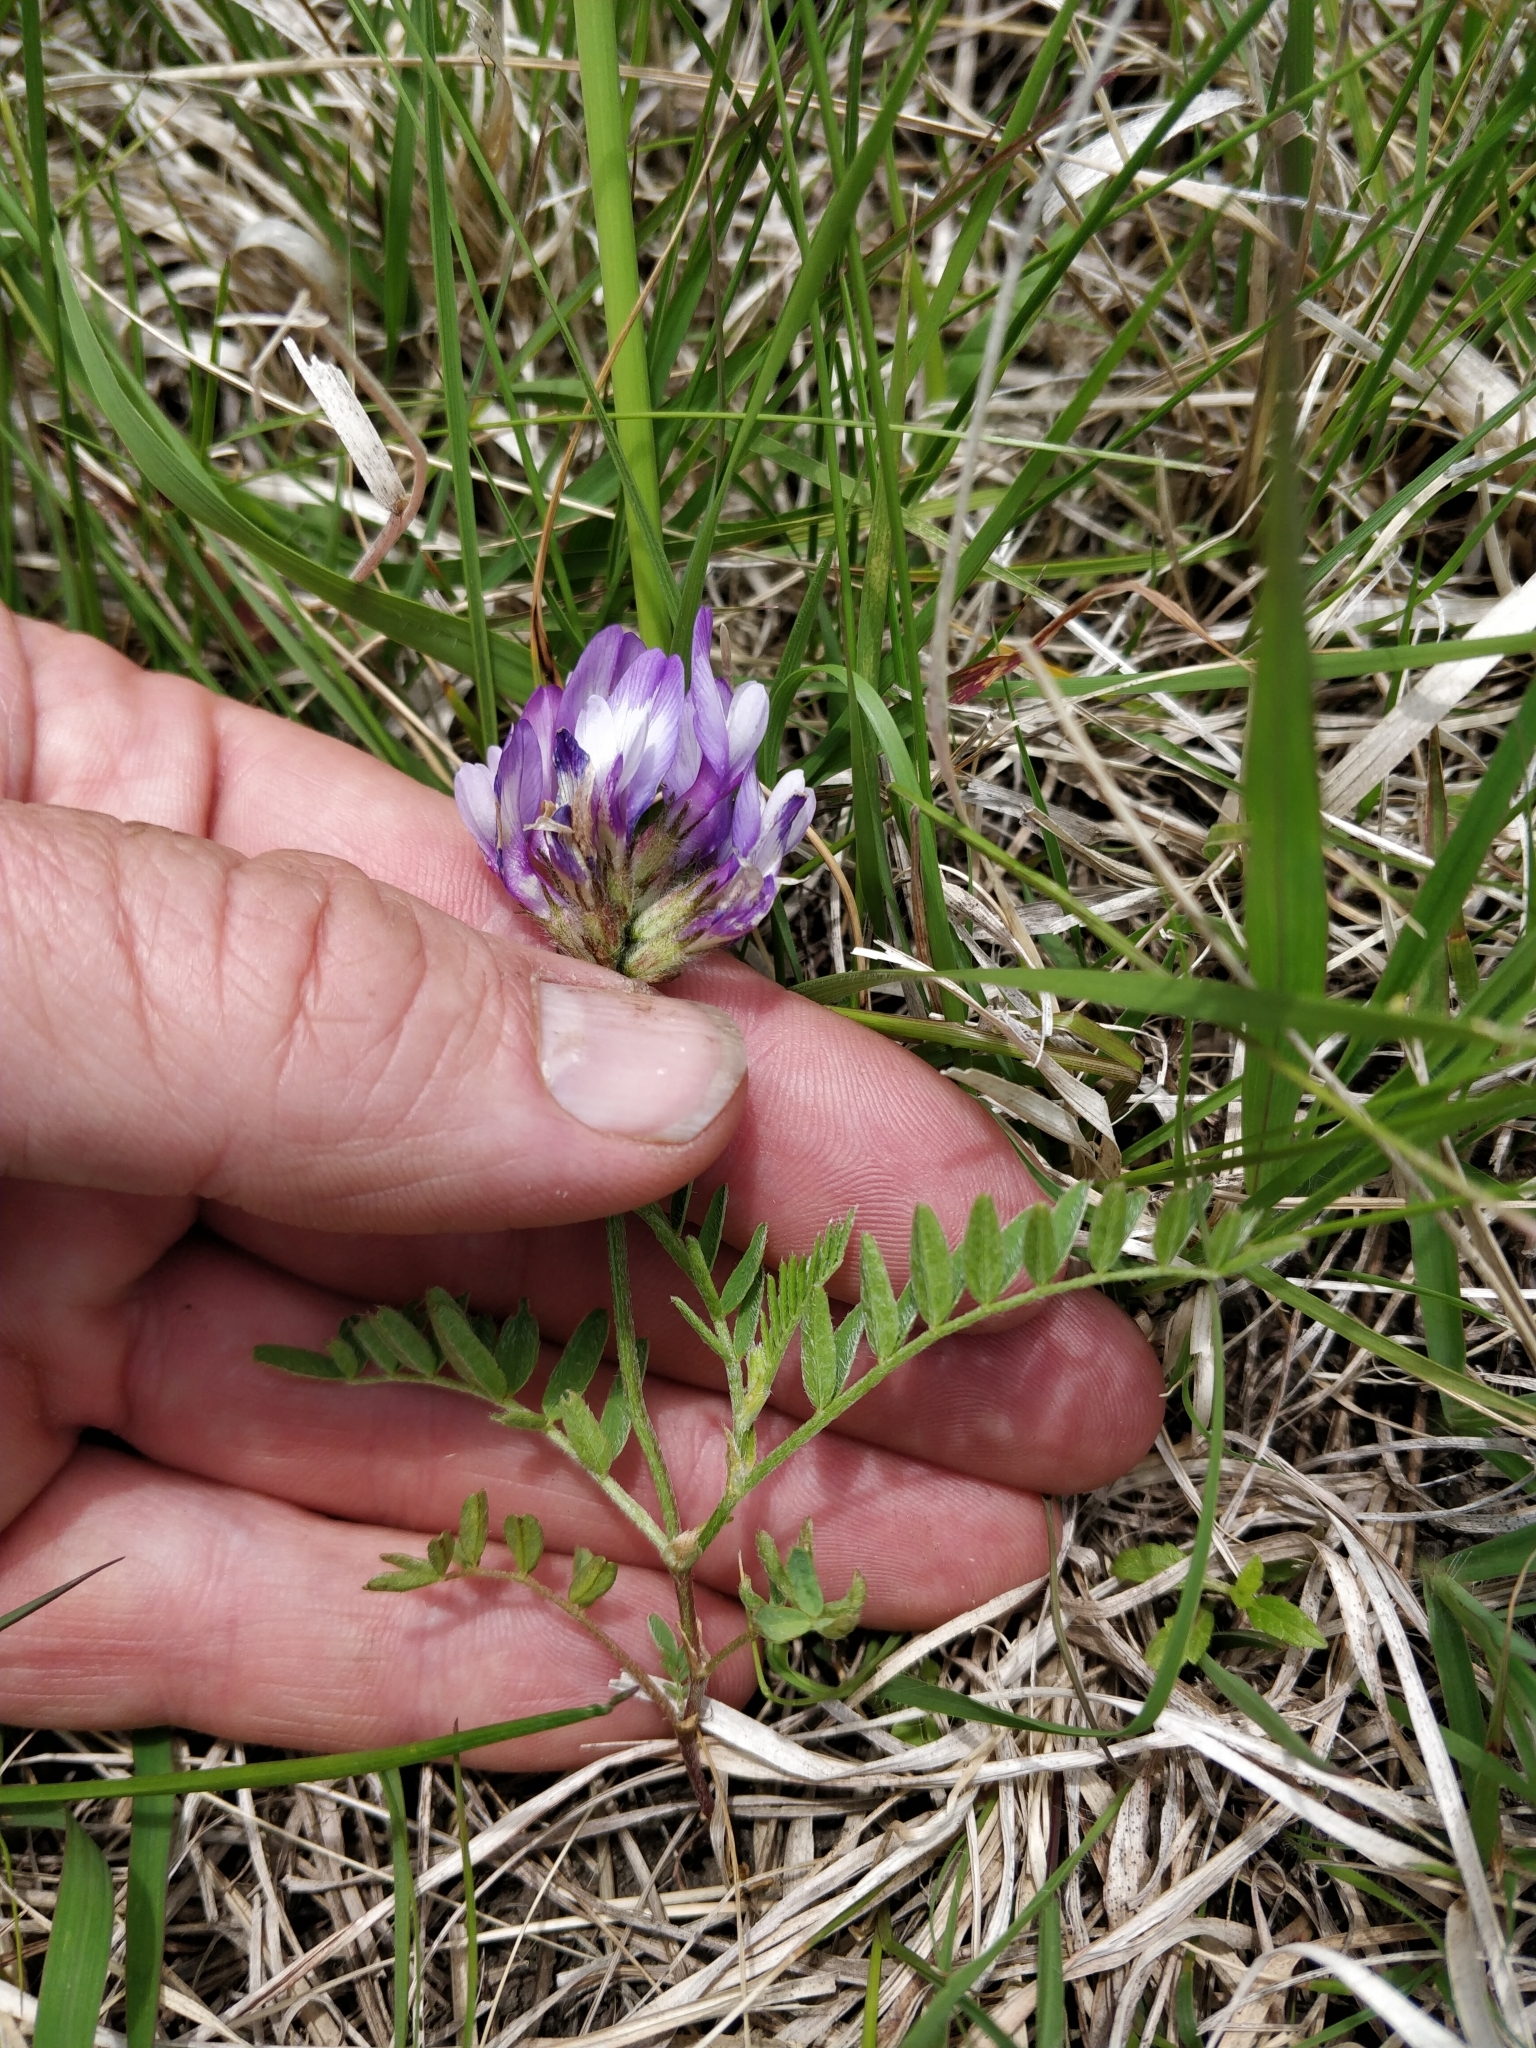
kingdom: Plantae
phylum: Tracheophyta
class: Magnoliopsida
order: Fabales
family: Fabaceae
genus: Astragalus
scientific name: Astragalus agrestis
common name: Field milk-vetch
